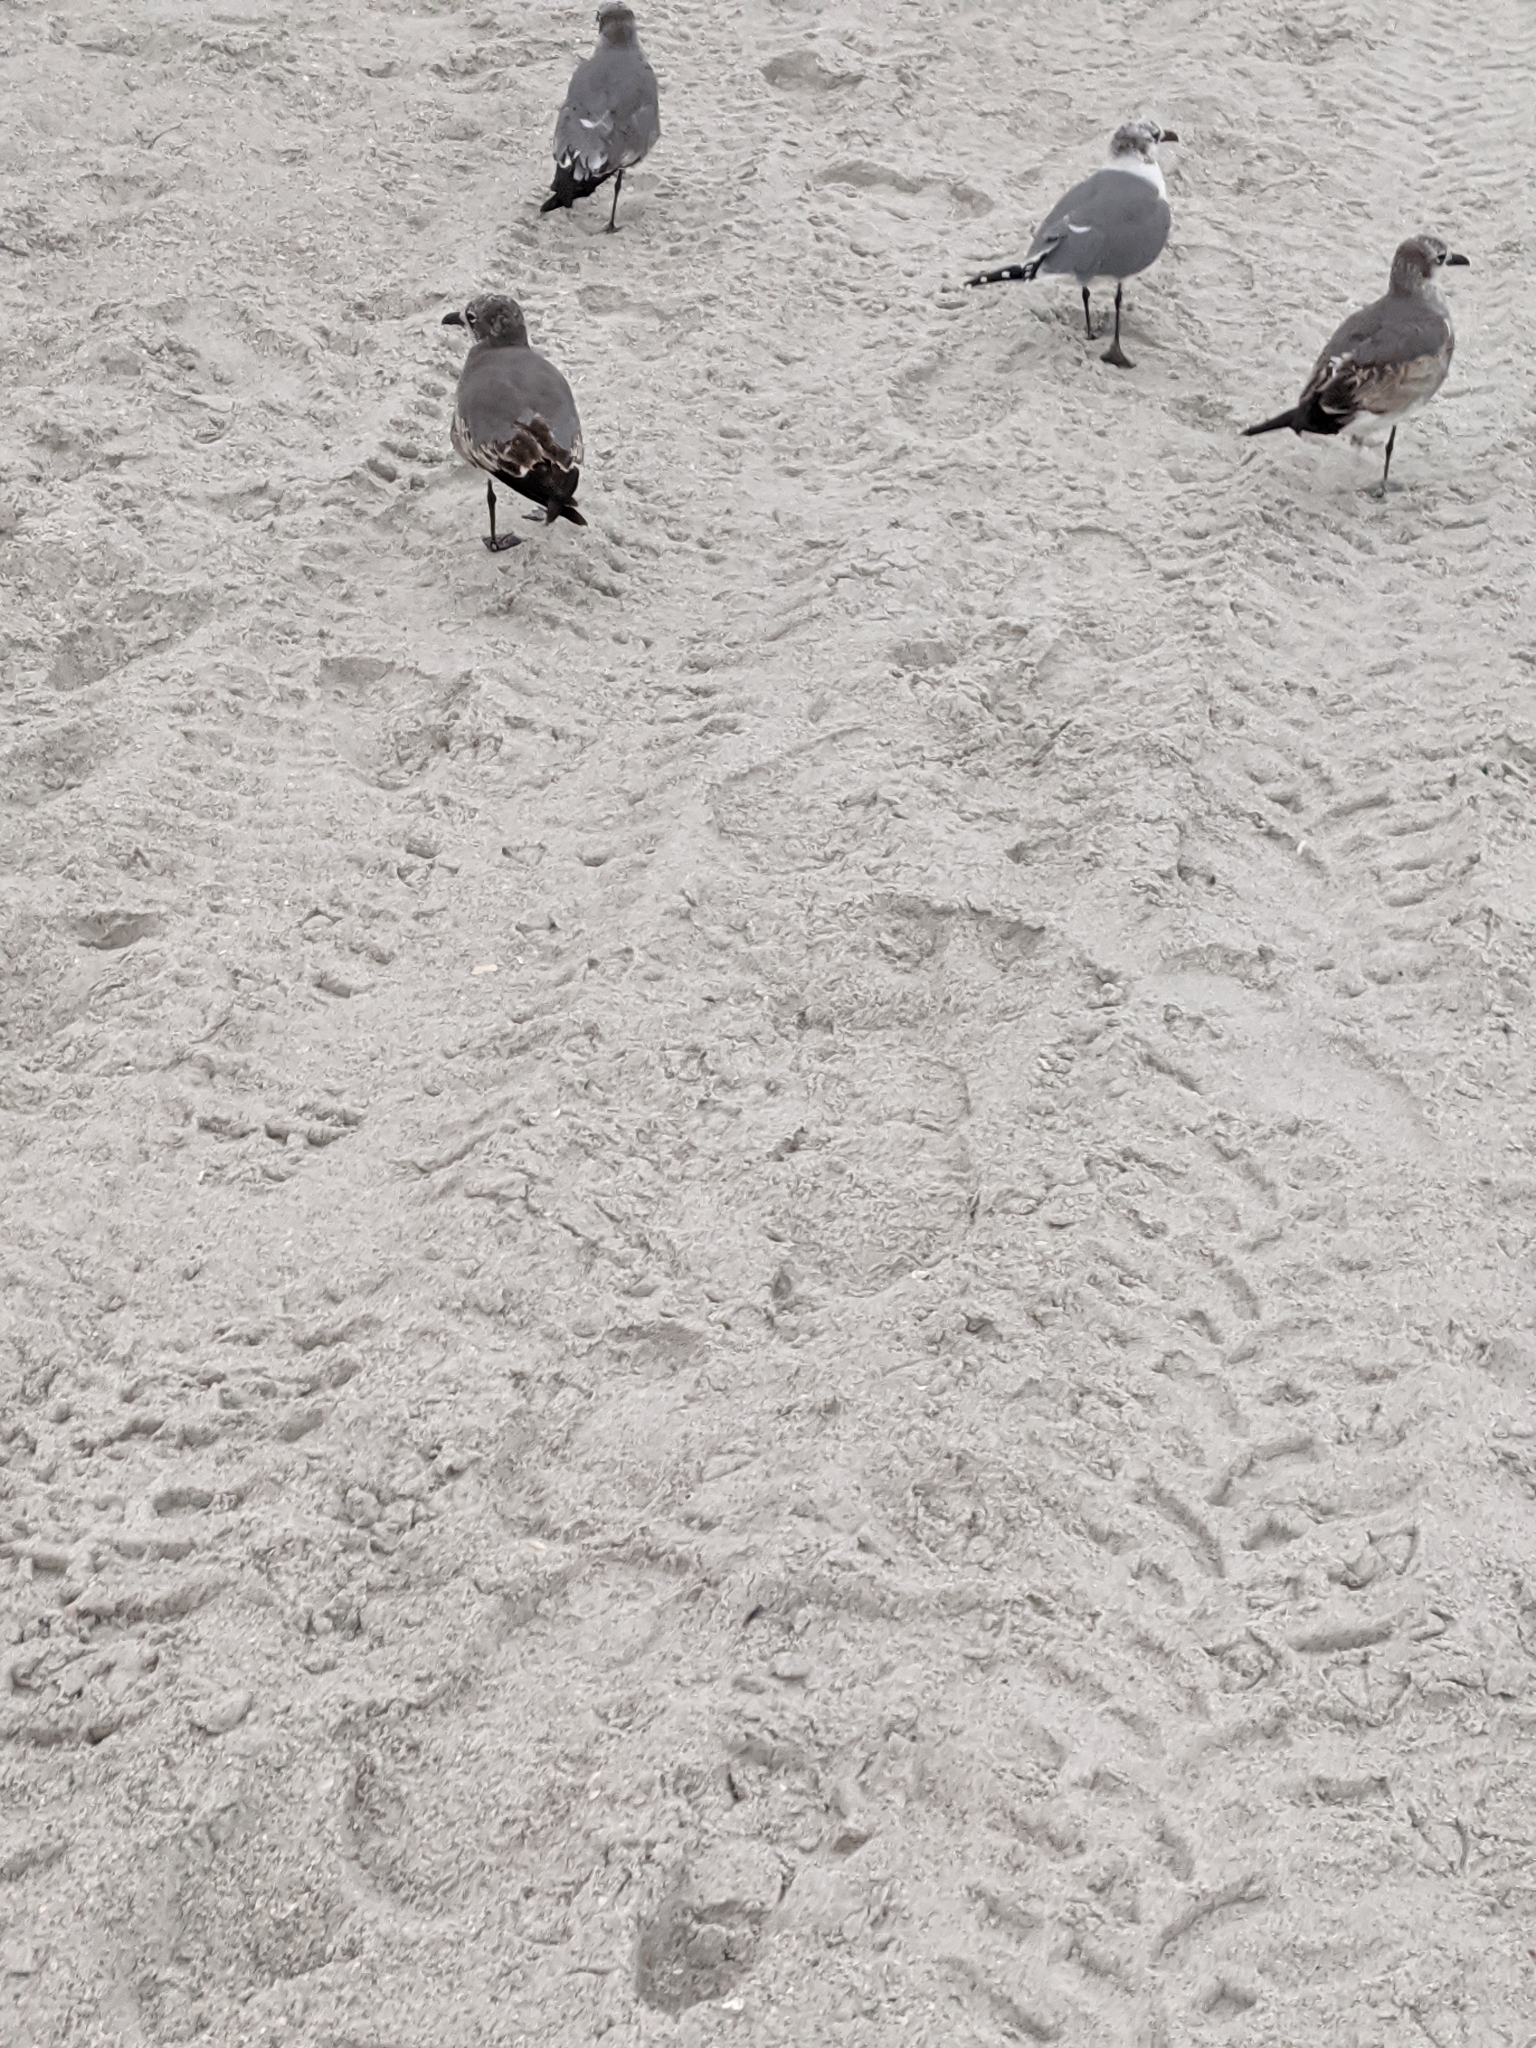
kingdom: Animalia
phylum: Chordata
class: Aves
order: Charadriiformes
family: Laridae
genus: Leucophaeus
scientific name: Leucophaeus atricilla
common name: Laughing gull
